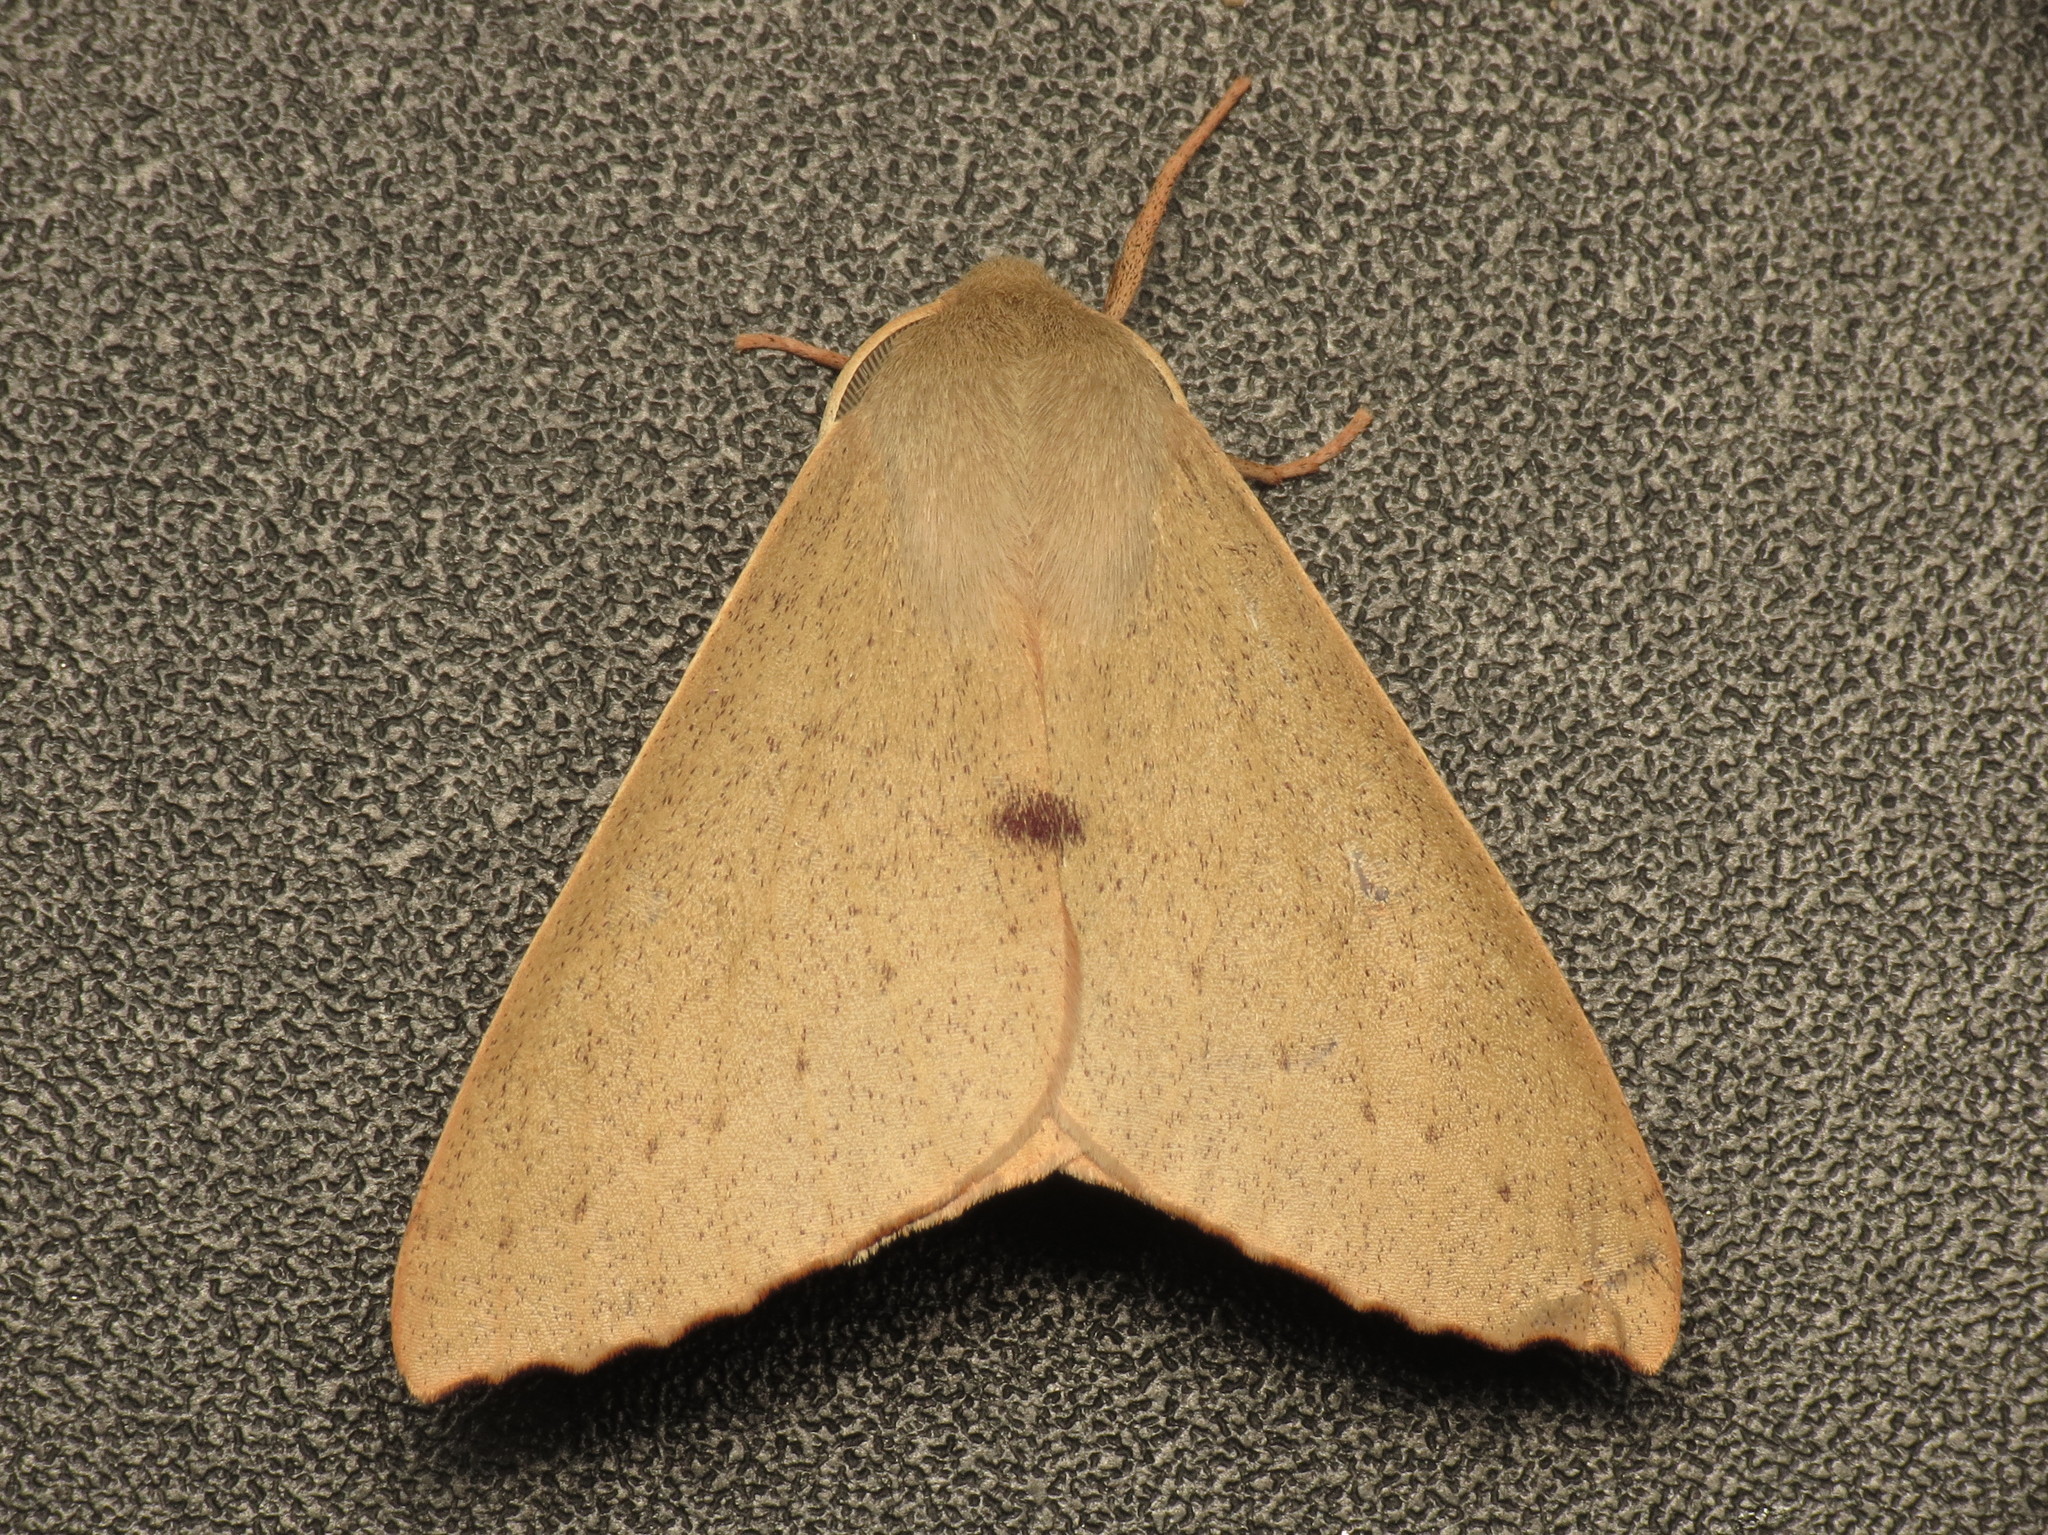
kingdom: Animalia
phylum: Arthropoda
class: Insecta
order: Lepidoptera
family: Geometridae
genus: Arhodia
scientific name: Arhodia lasiocamparia
